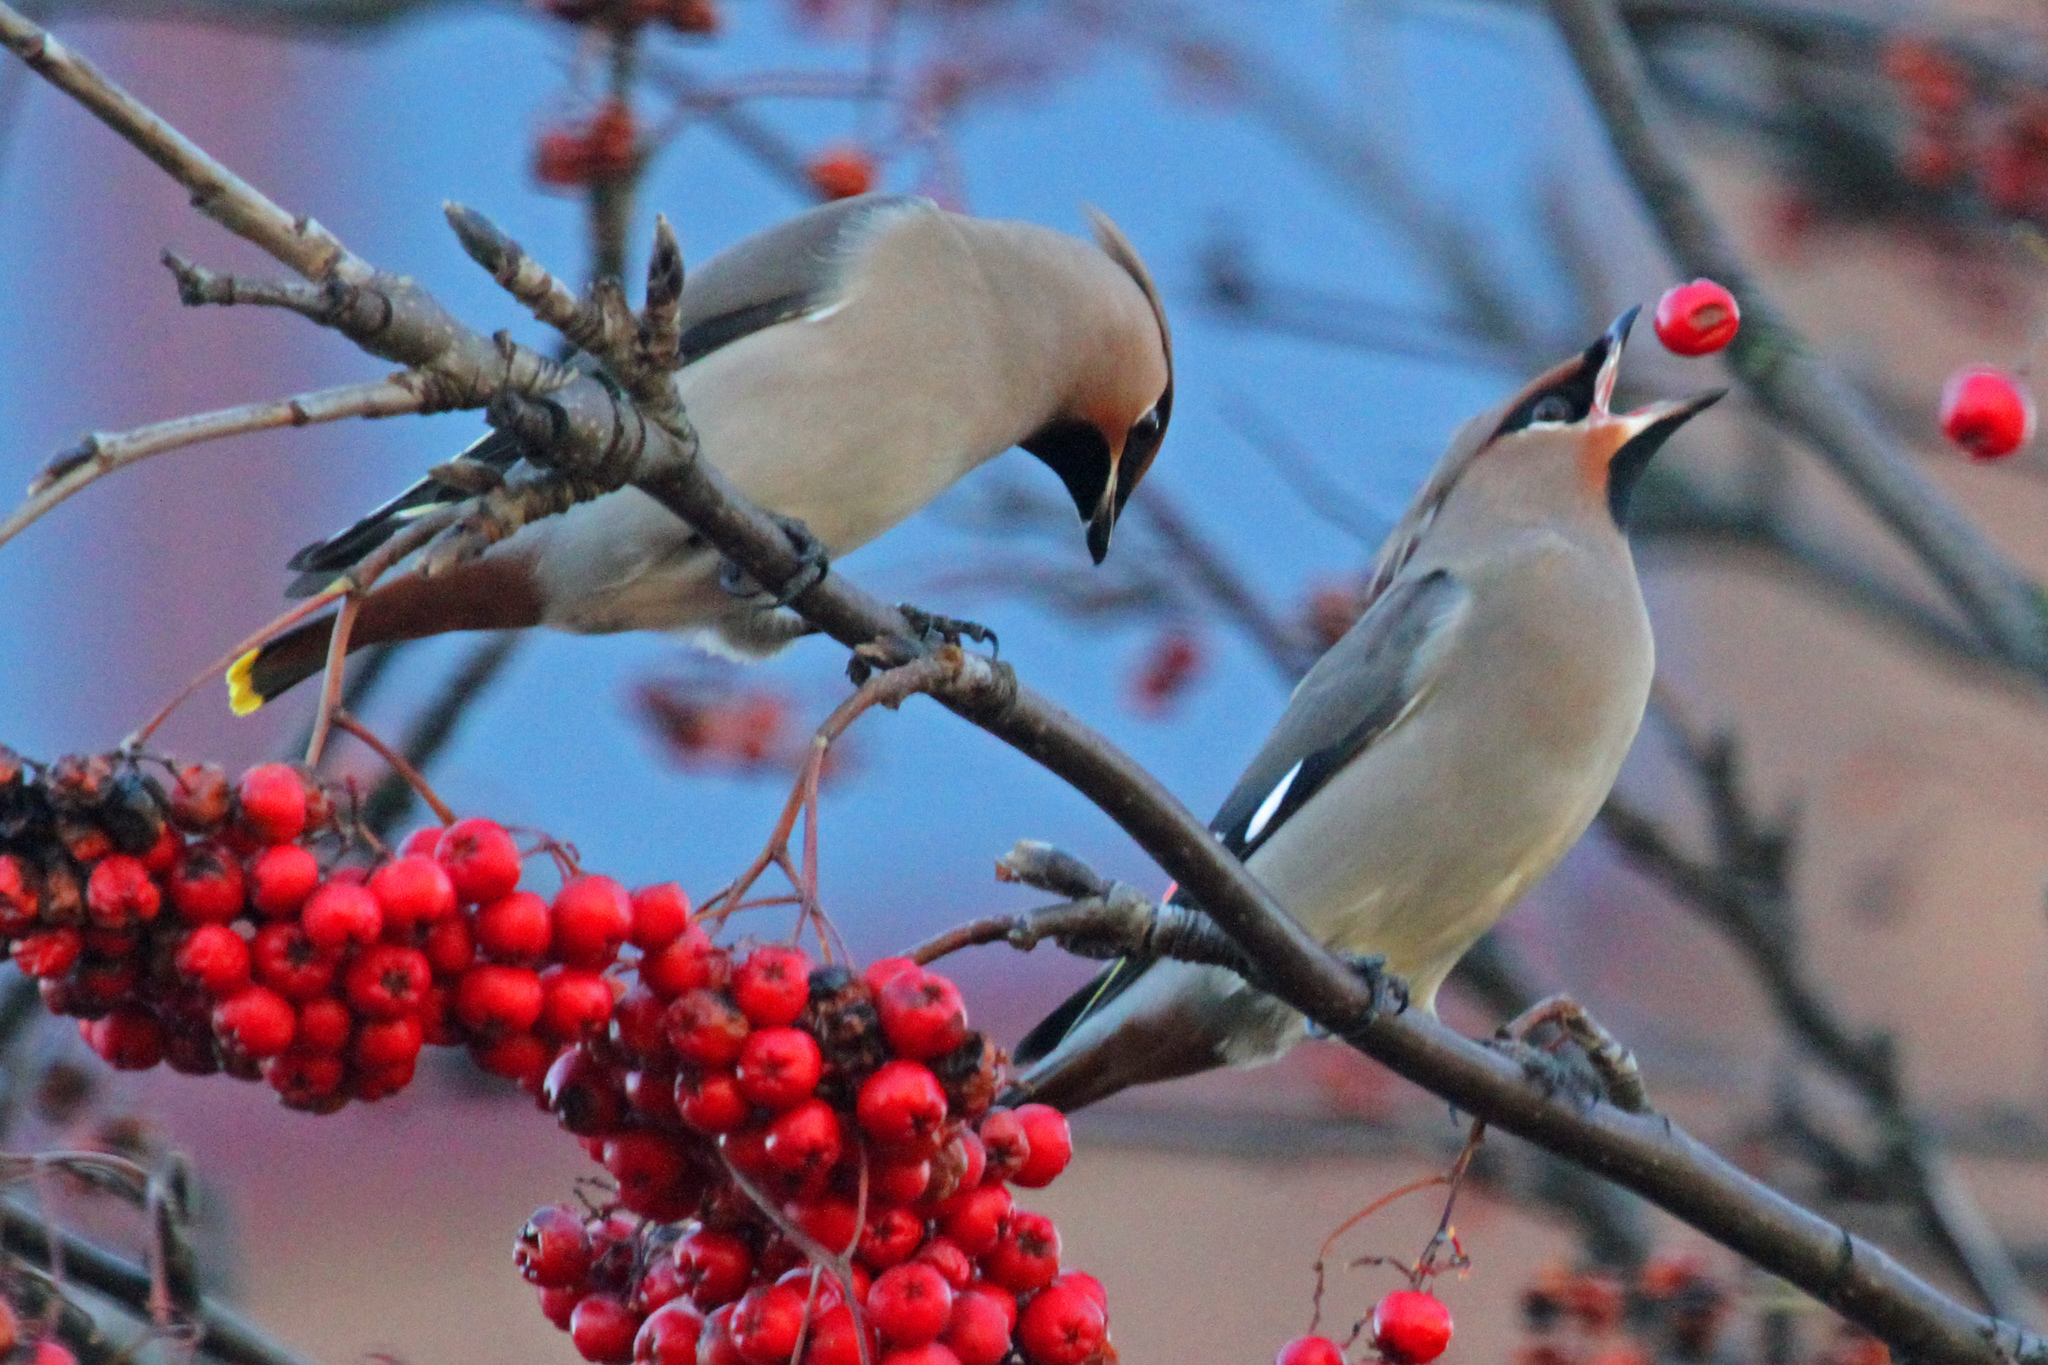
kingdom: Animalia
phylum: Chordata
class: Aves
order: Passeriformes
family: Bombycillidae
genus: Bombycilla
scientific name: Bombycilla garrulus
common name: Bohemian waxwing
